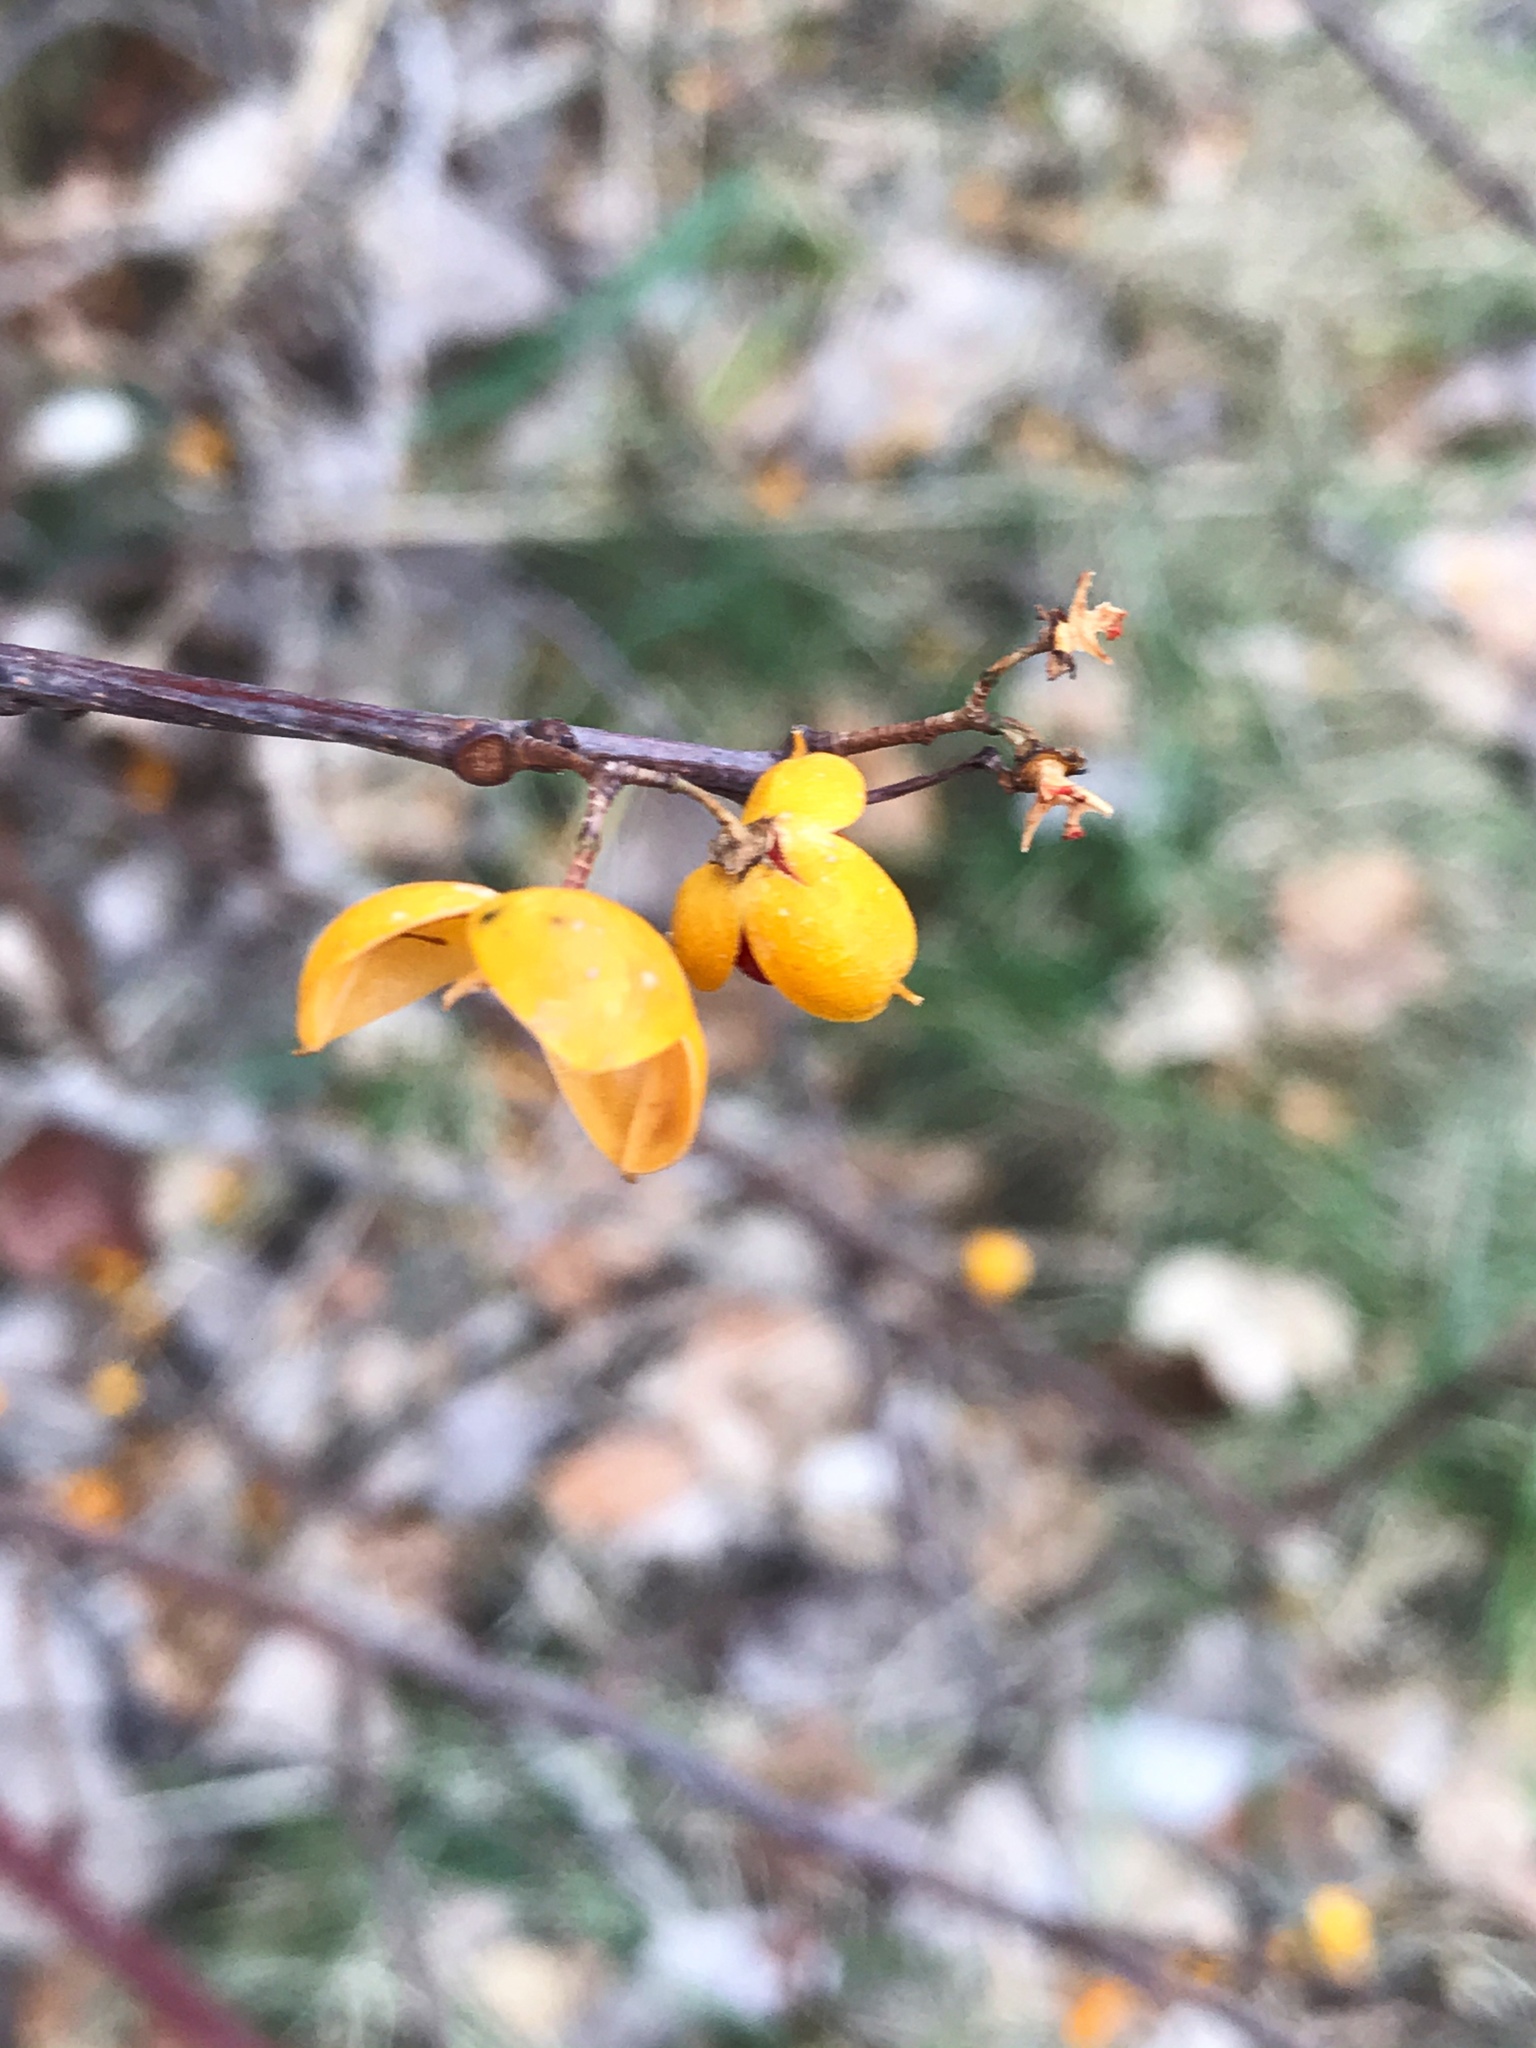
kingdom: Plantae
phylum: Tracheophyta
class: Magnoliopsida
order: Celastrales
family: Celastraceae
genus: Celastrus
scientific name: Celastrus orbiculatus
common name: Oriental bittersweet
